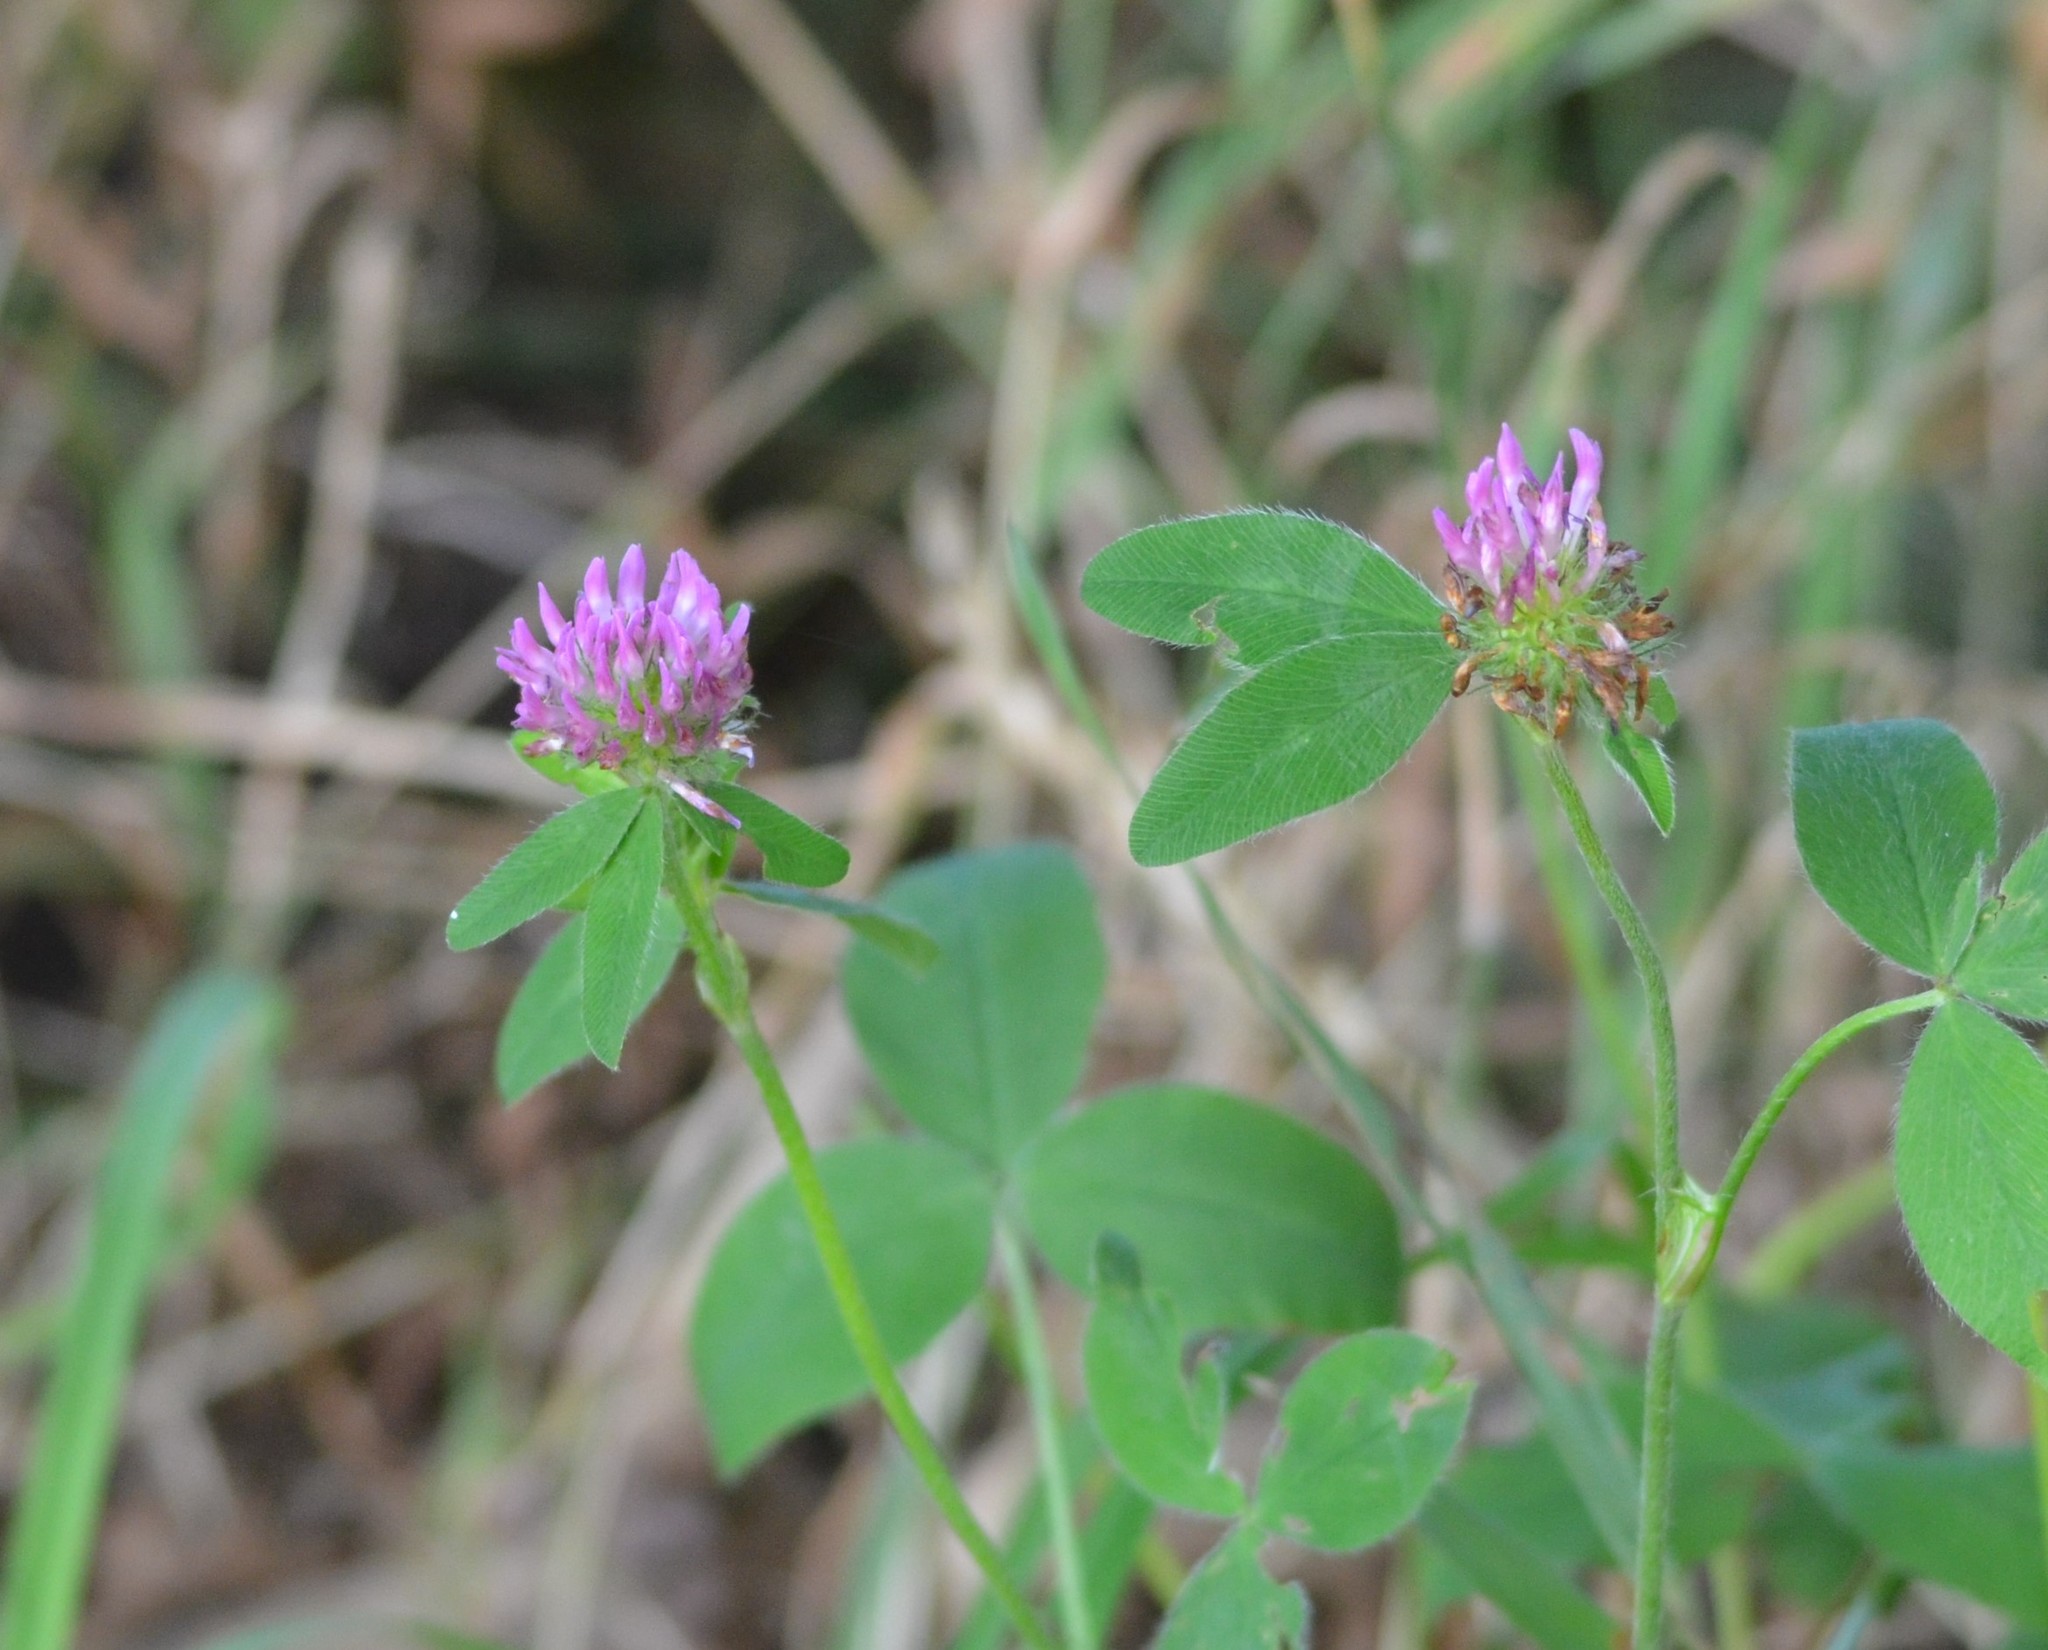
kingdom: Plantae
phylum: Tracheophyta
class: Magnoliopsida
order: Fabales
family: Fabaceae
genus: Trifolium
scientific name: Trifolium pratense
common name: Red clover
